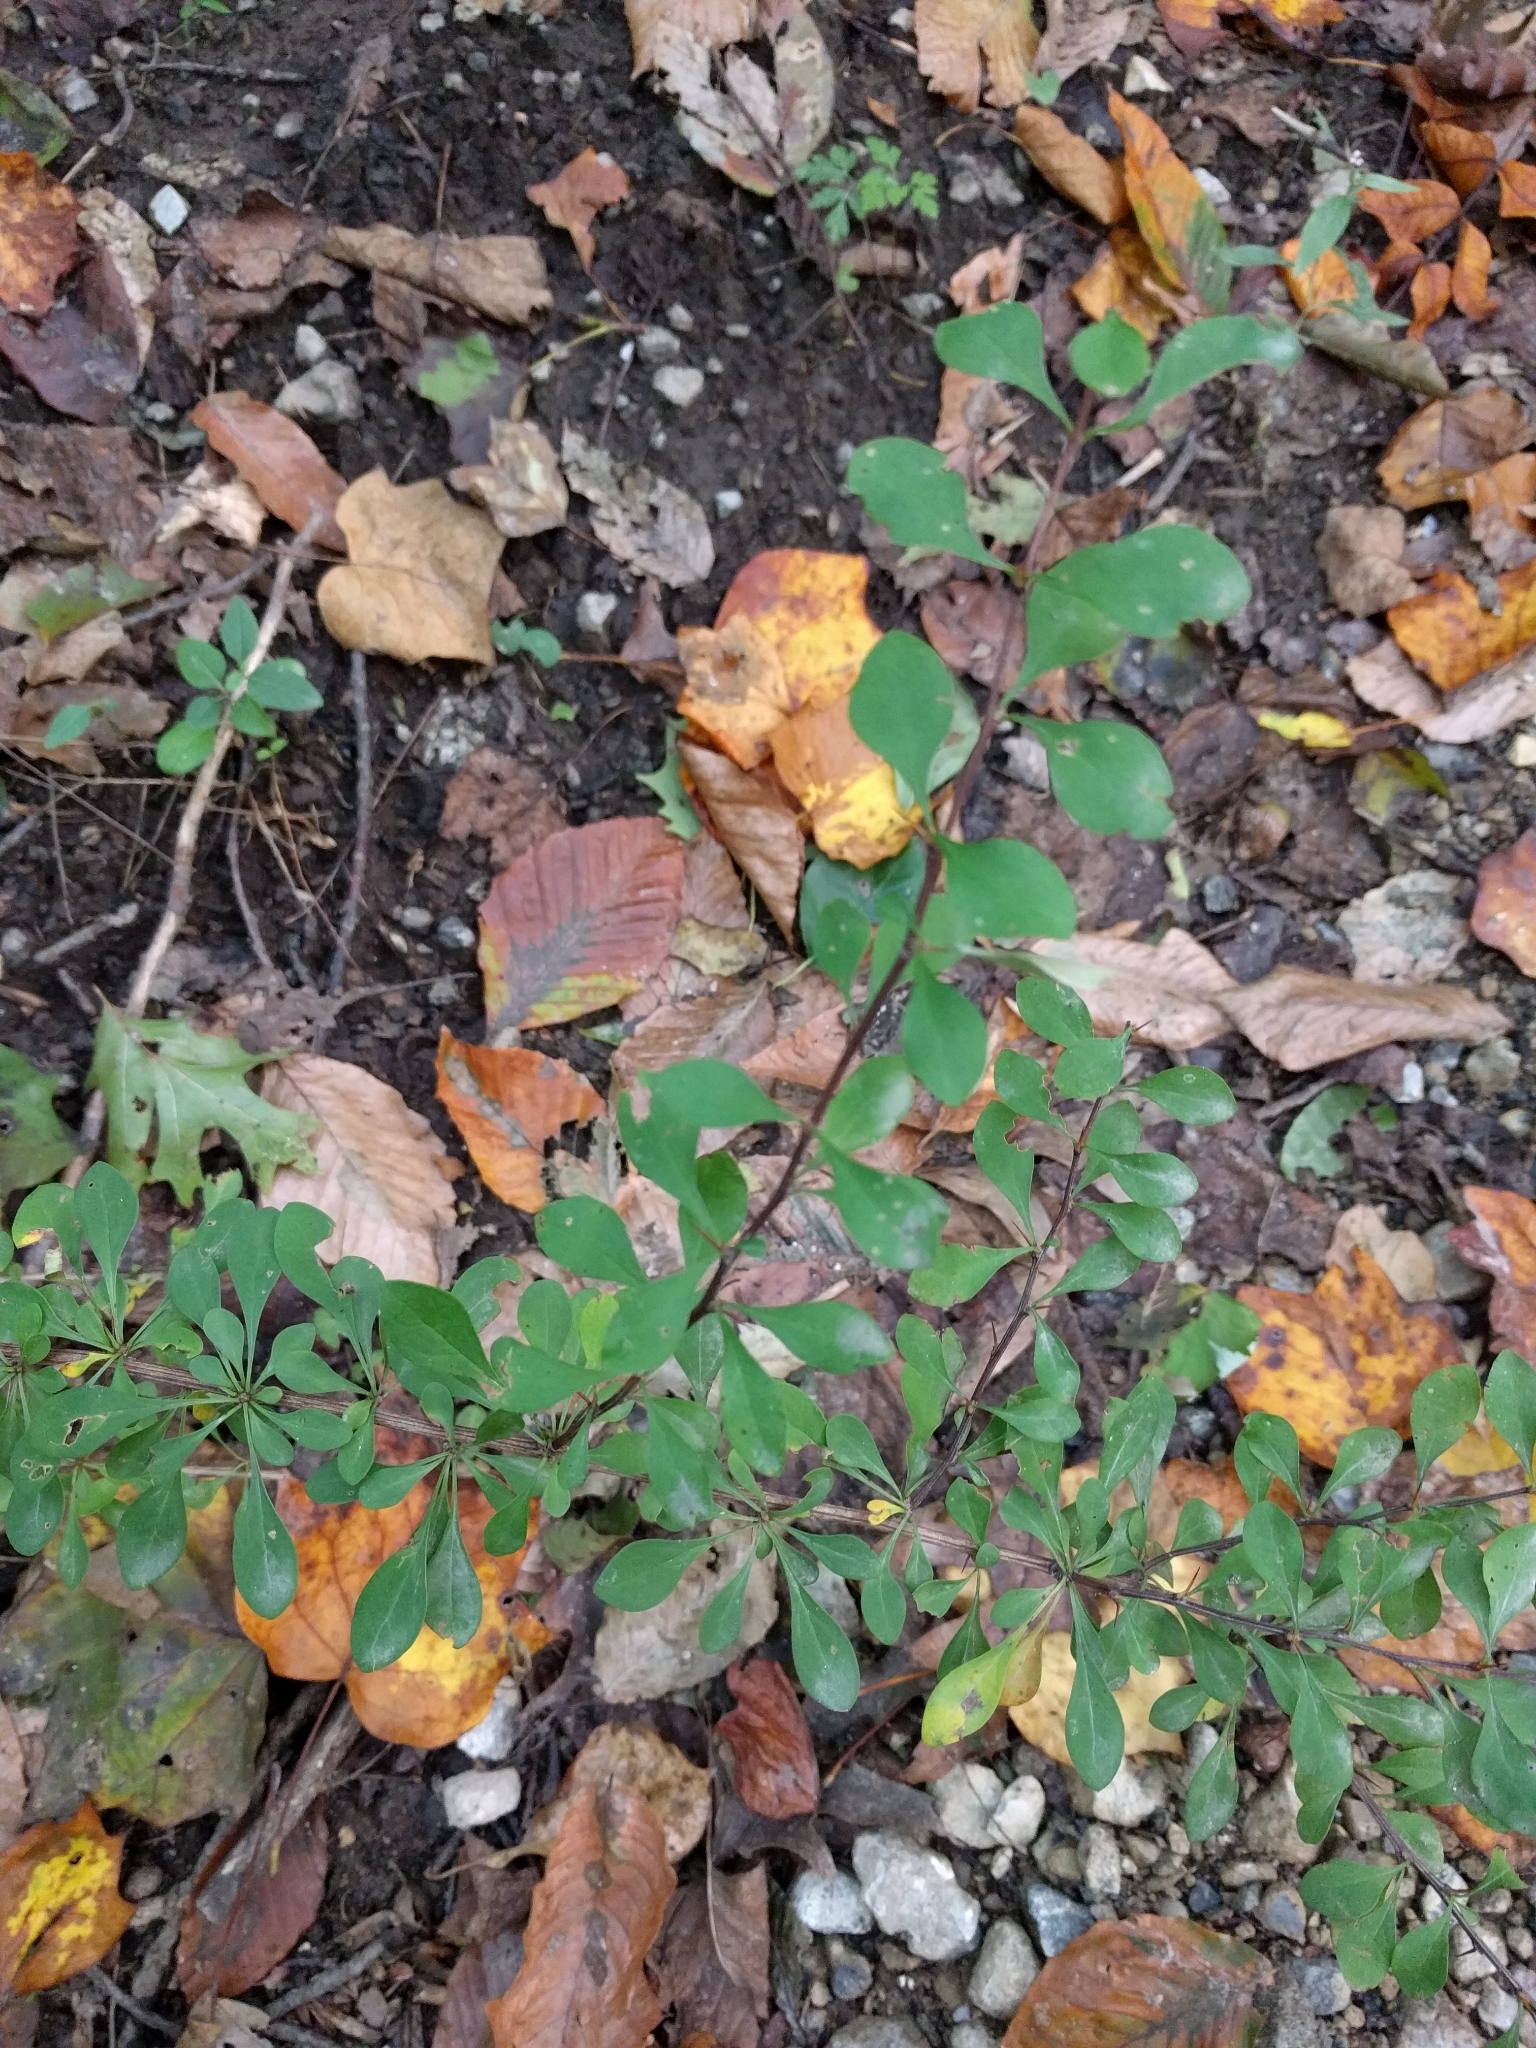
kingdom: Plantae
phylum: Tracheophyta
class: Magnoliopsida
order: Ranunculales
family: Berberidaceae
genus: Berberis
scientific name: Berberis thunbergii
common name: Japanese barberry
